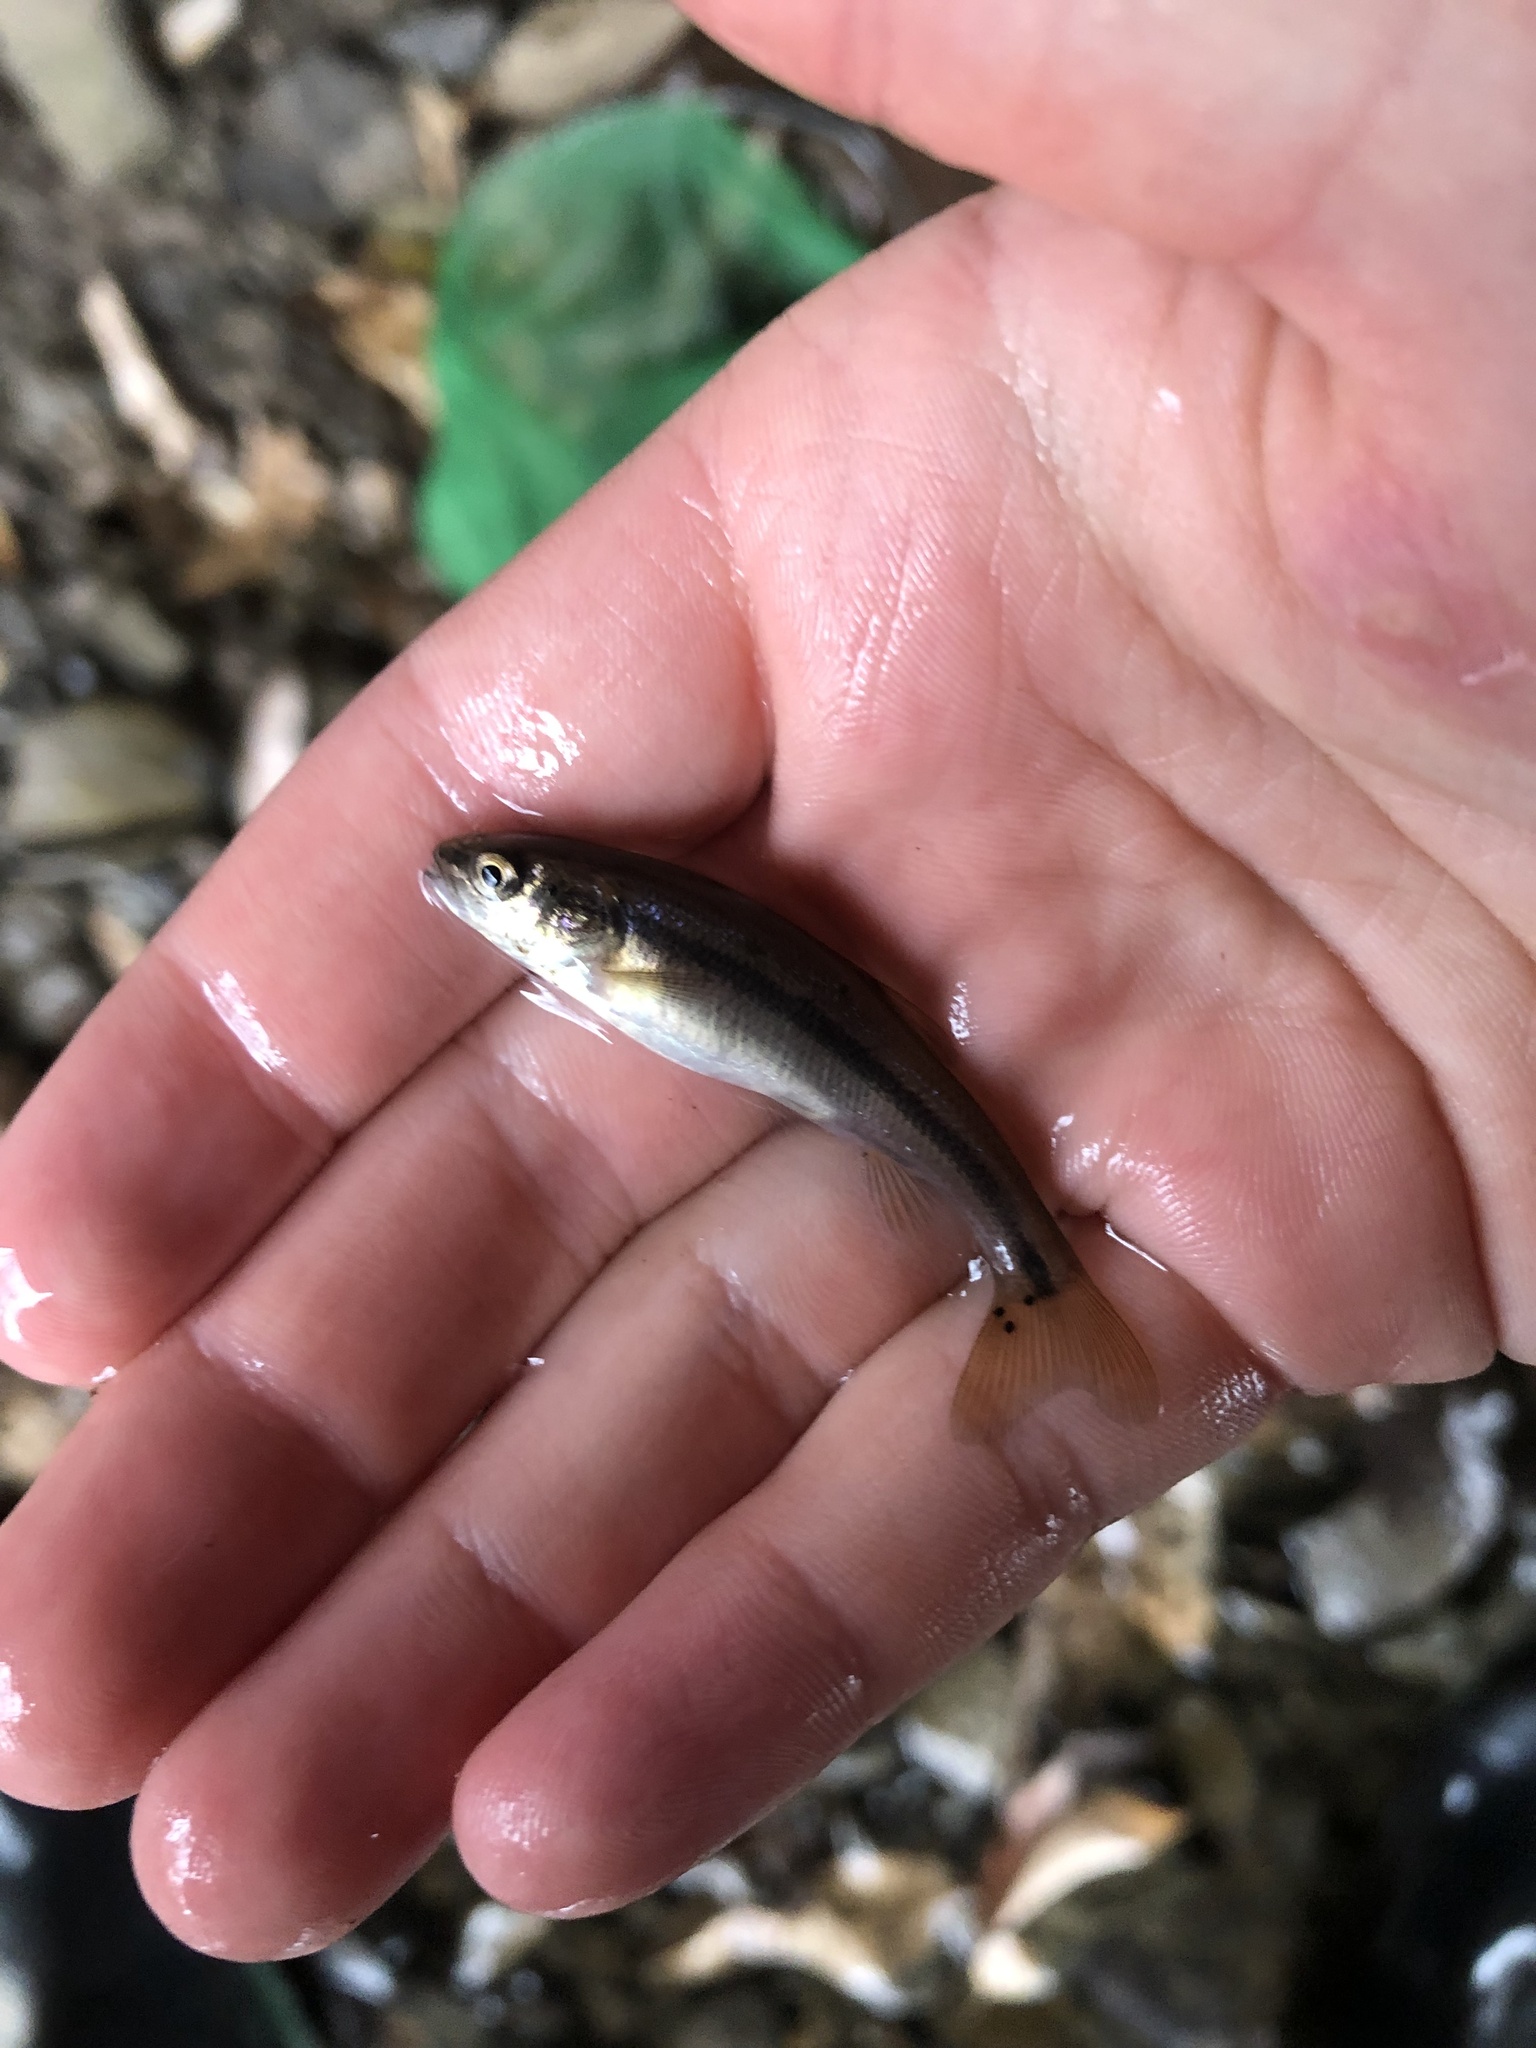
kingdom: Animalia
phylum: Platyhelminthes
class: Trematoda
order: Diplostomida
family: Diplostomidae
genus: Neascus
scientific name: Neascus
